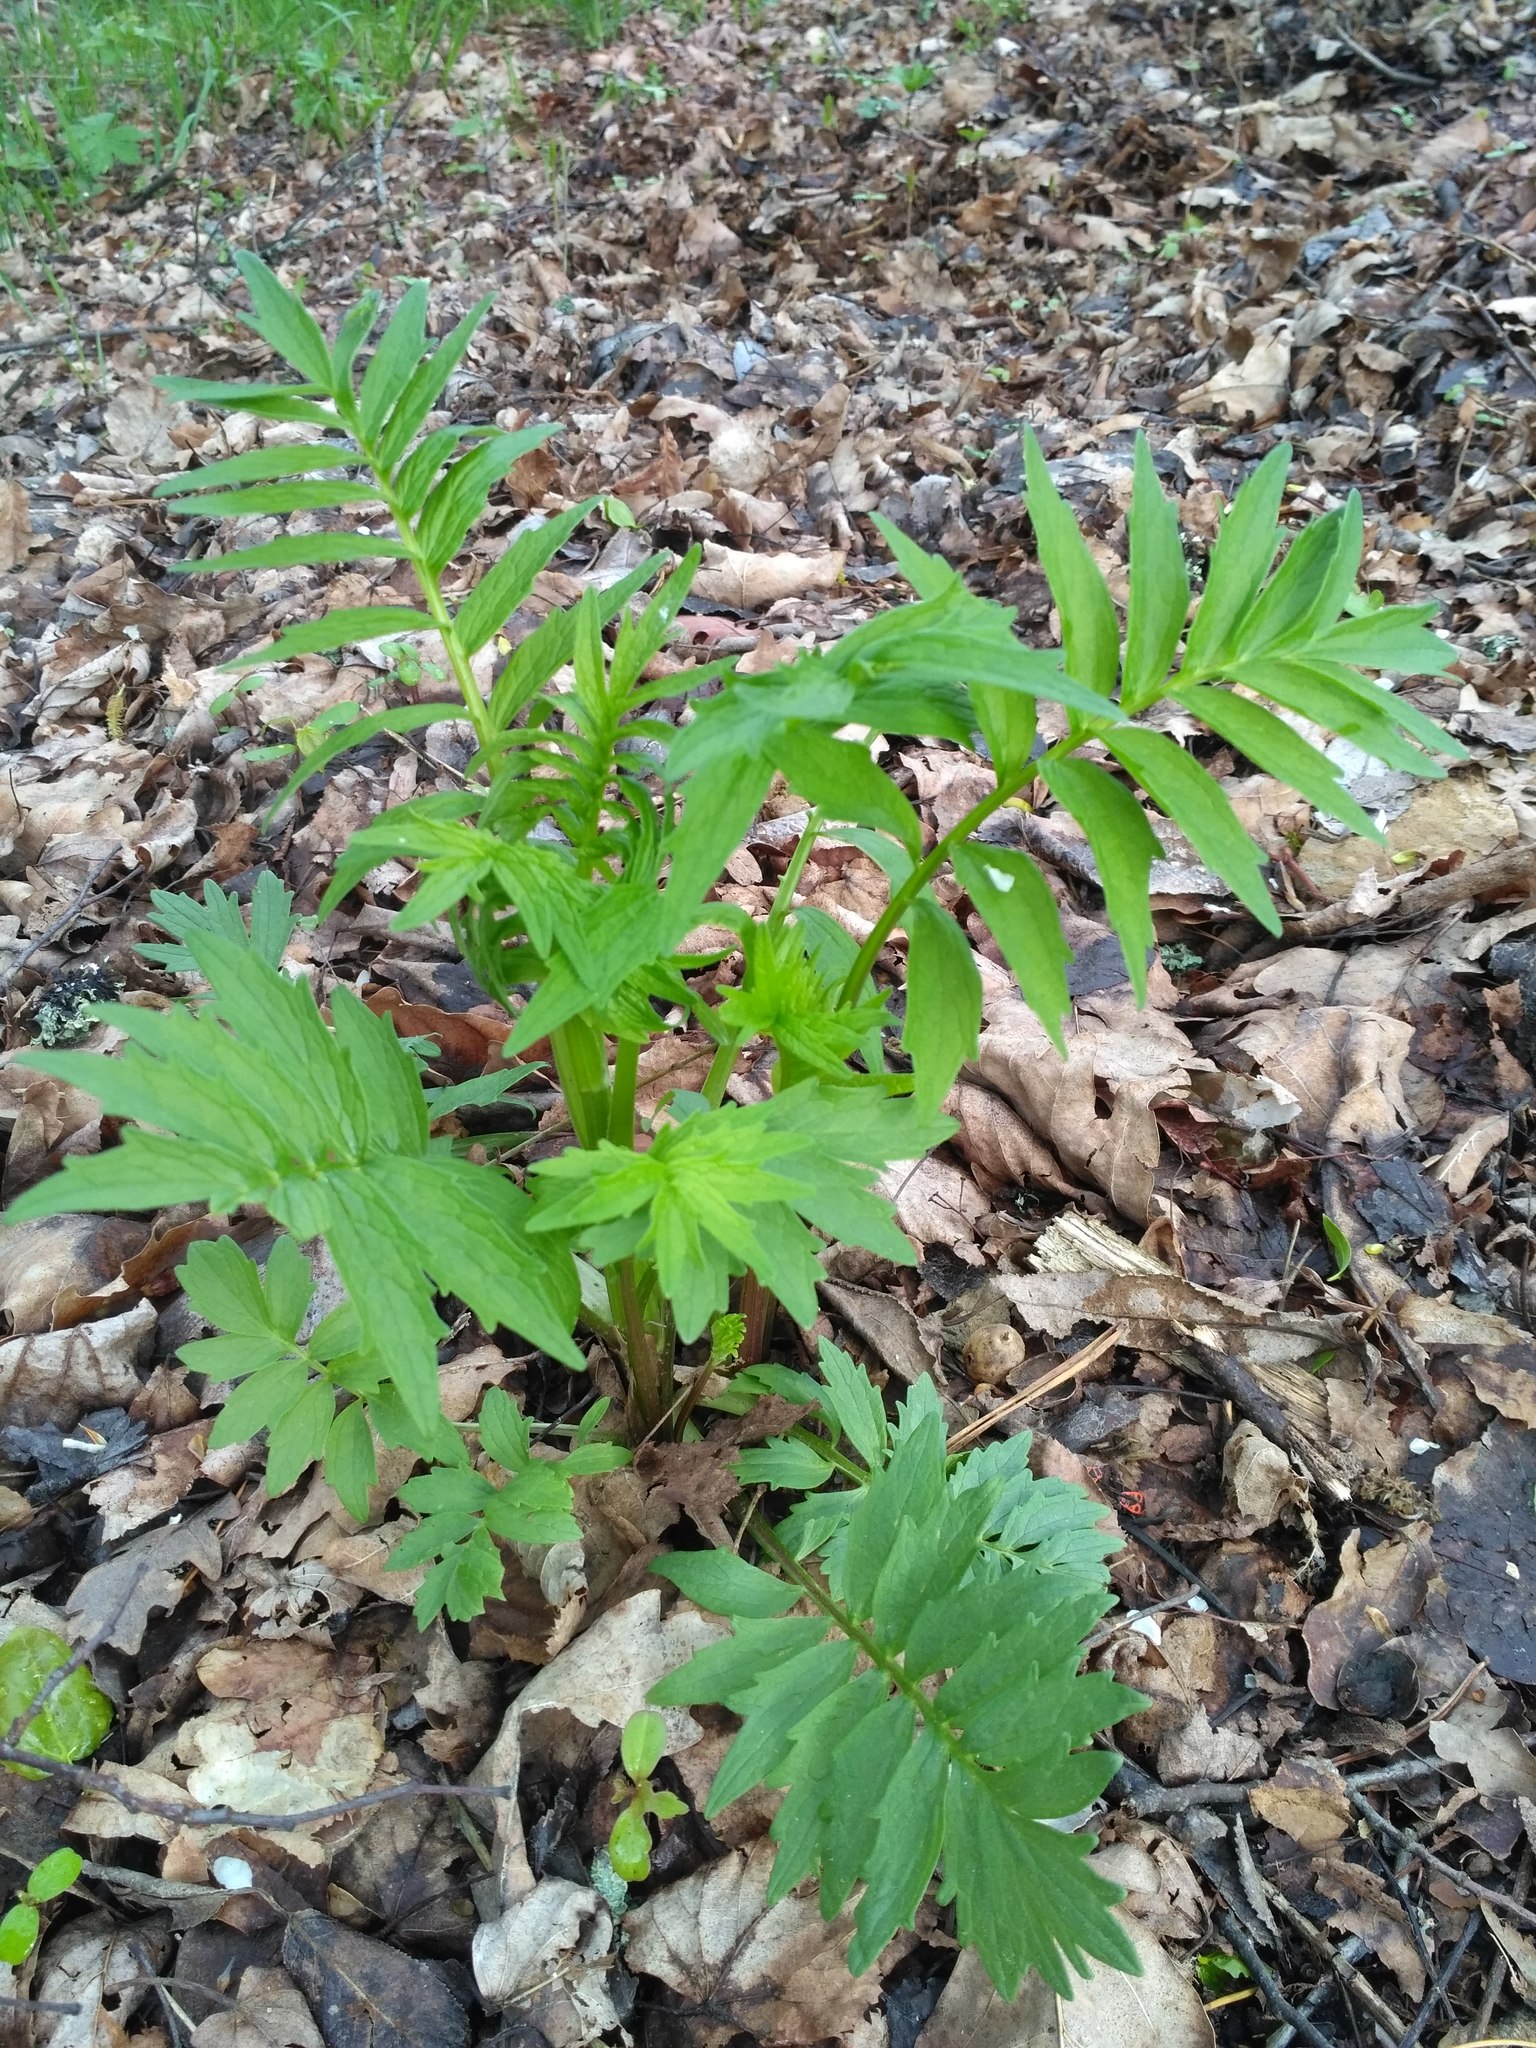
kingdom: Plantae
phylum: Tracheophyta
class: Magnoliopsida
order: Dipsacales
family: Caprifoliaceae
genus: Valeriana
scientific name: Valeriana officinalis
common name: Common valerian
